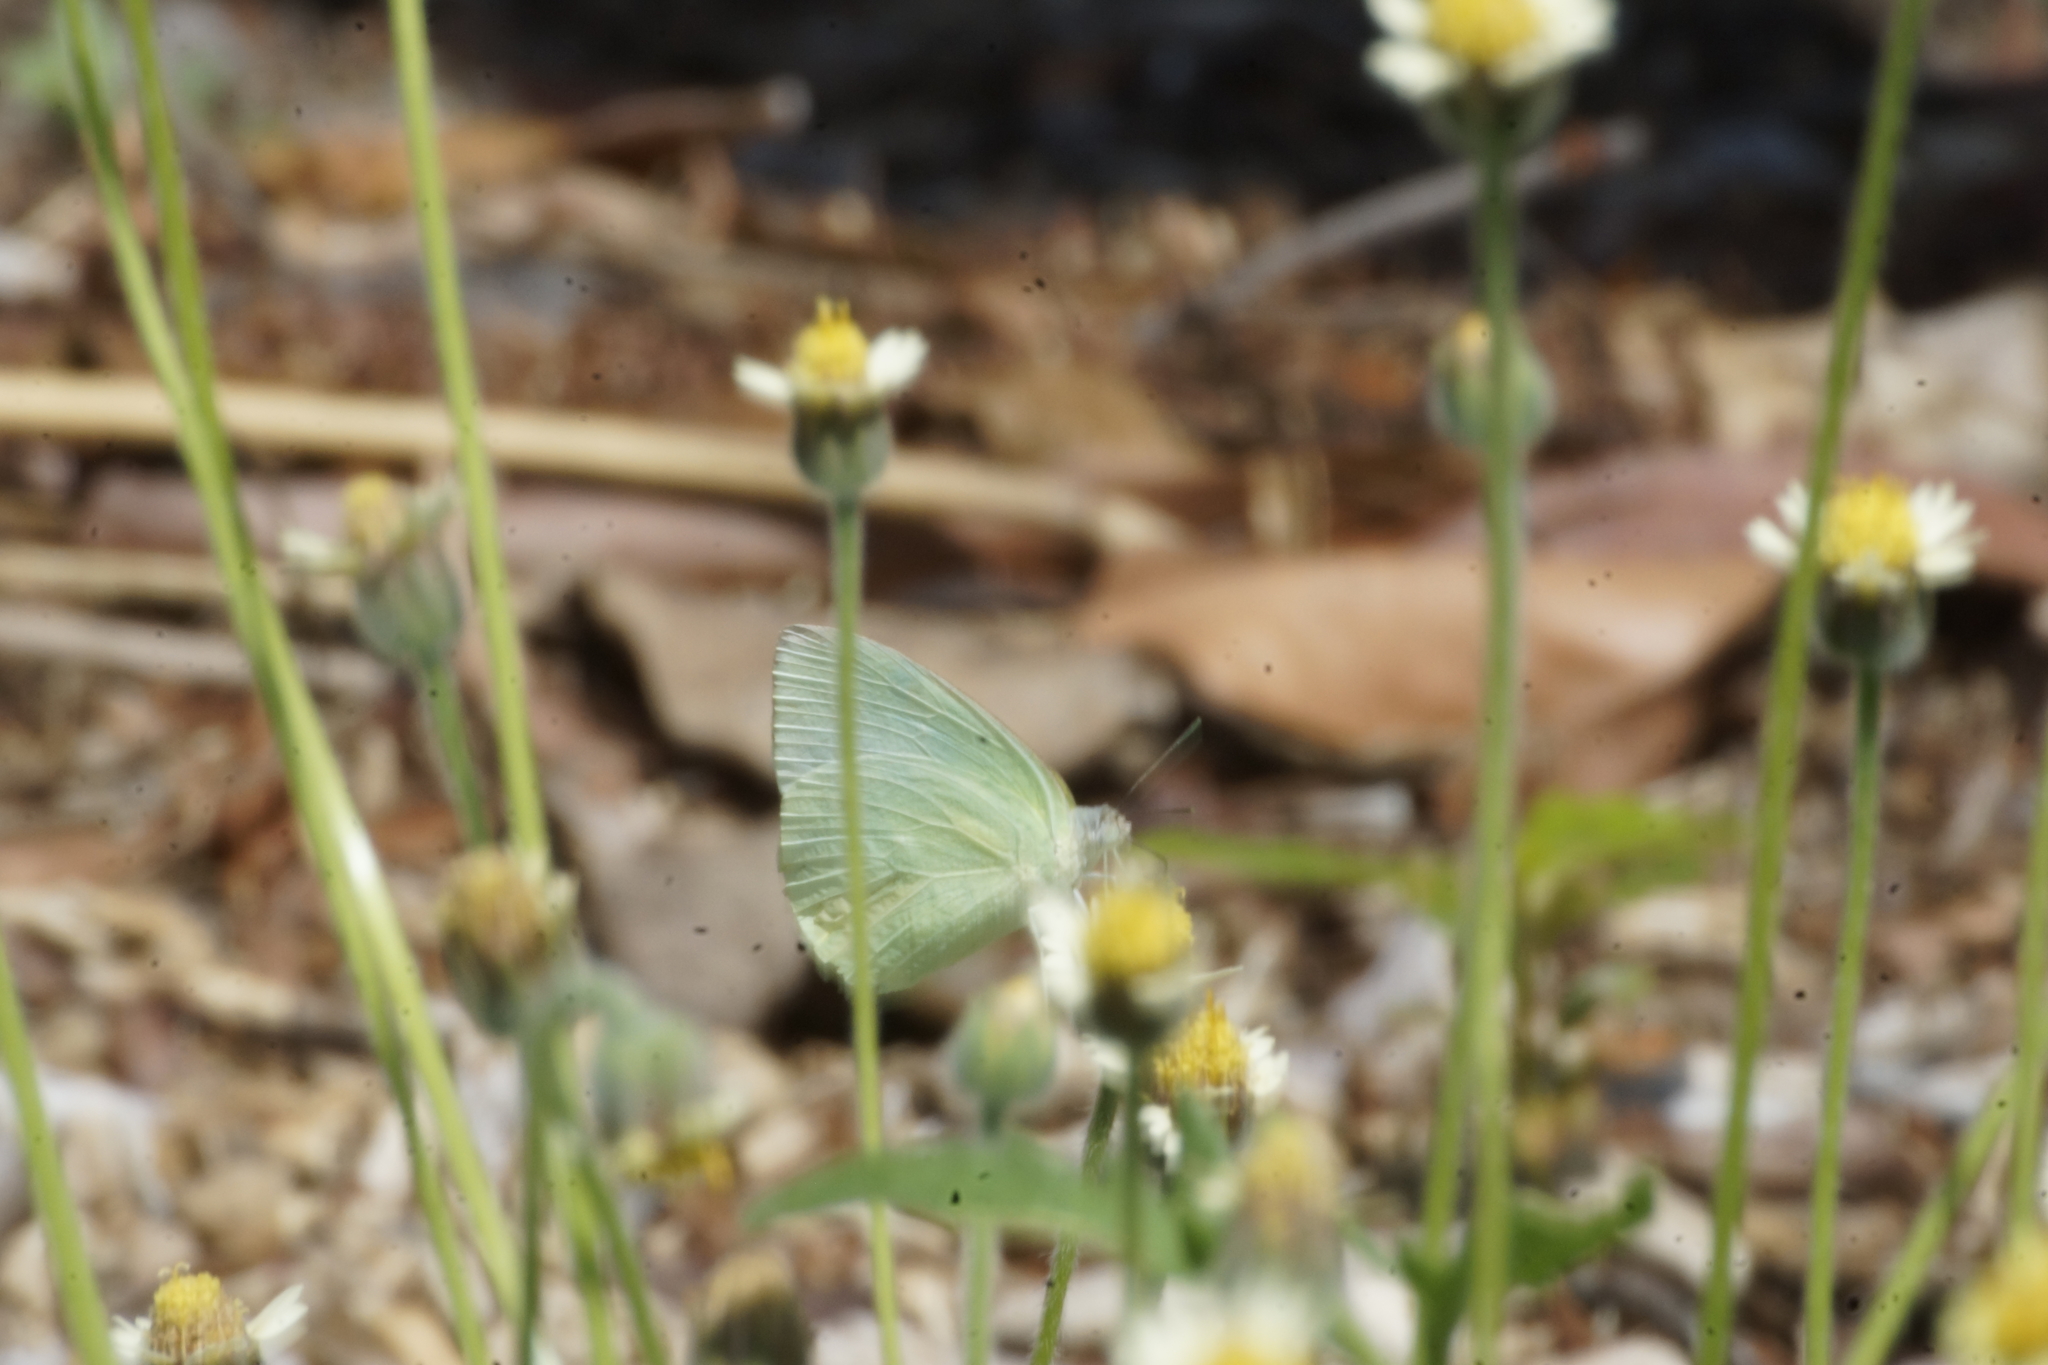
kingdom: Animalia
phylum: Arthropoda
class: Insecta
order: Lepidoptera
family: Pieridae
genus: Catopsilia
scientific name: Catopsilia pomona
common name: Common emigrant
